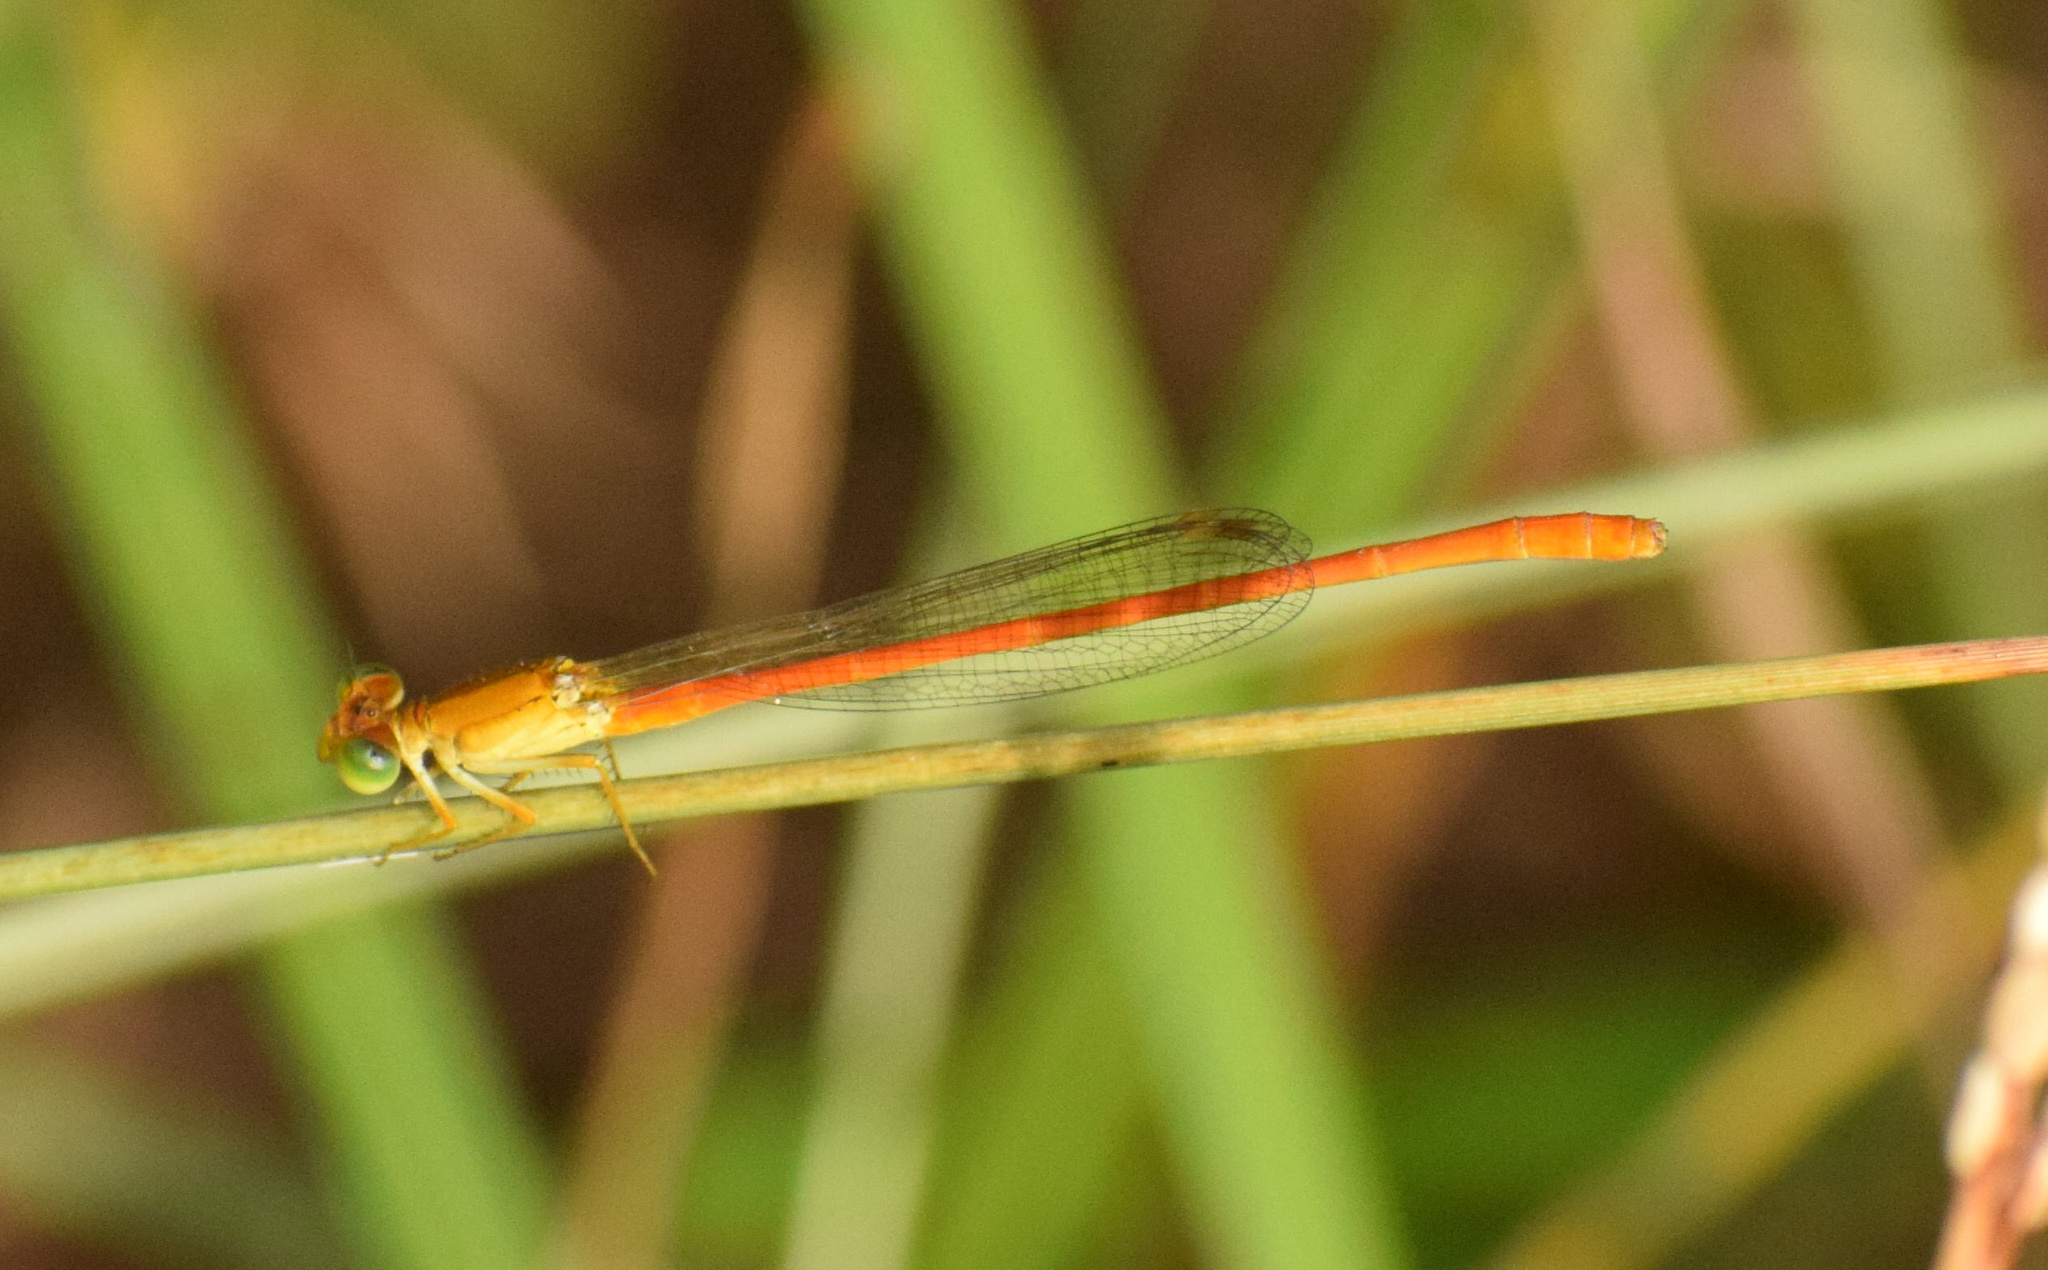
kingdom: Animalia
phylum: Arthropoda
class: Insecta
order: Odonata
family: Coenagrionidae
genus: Ceriagrion
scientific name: Ceriagrion glabrum
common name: Common pond damsel
